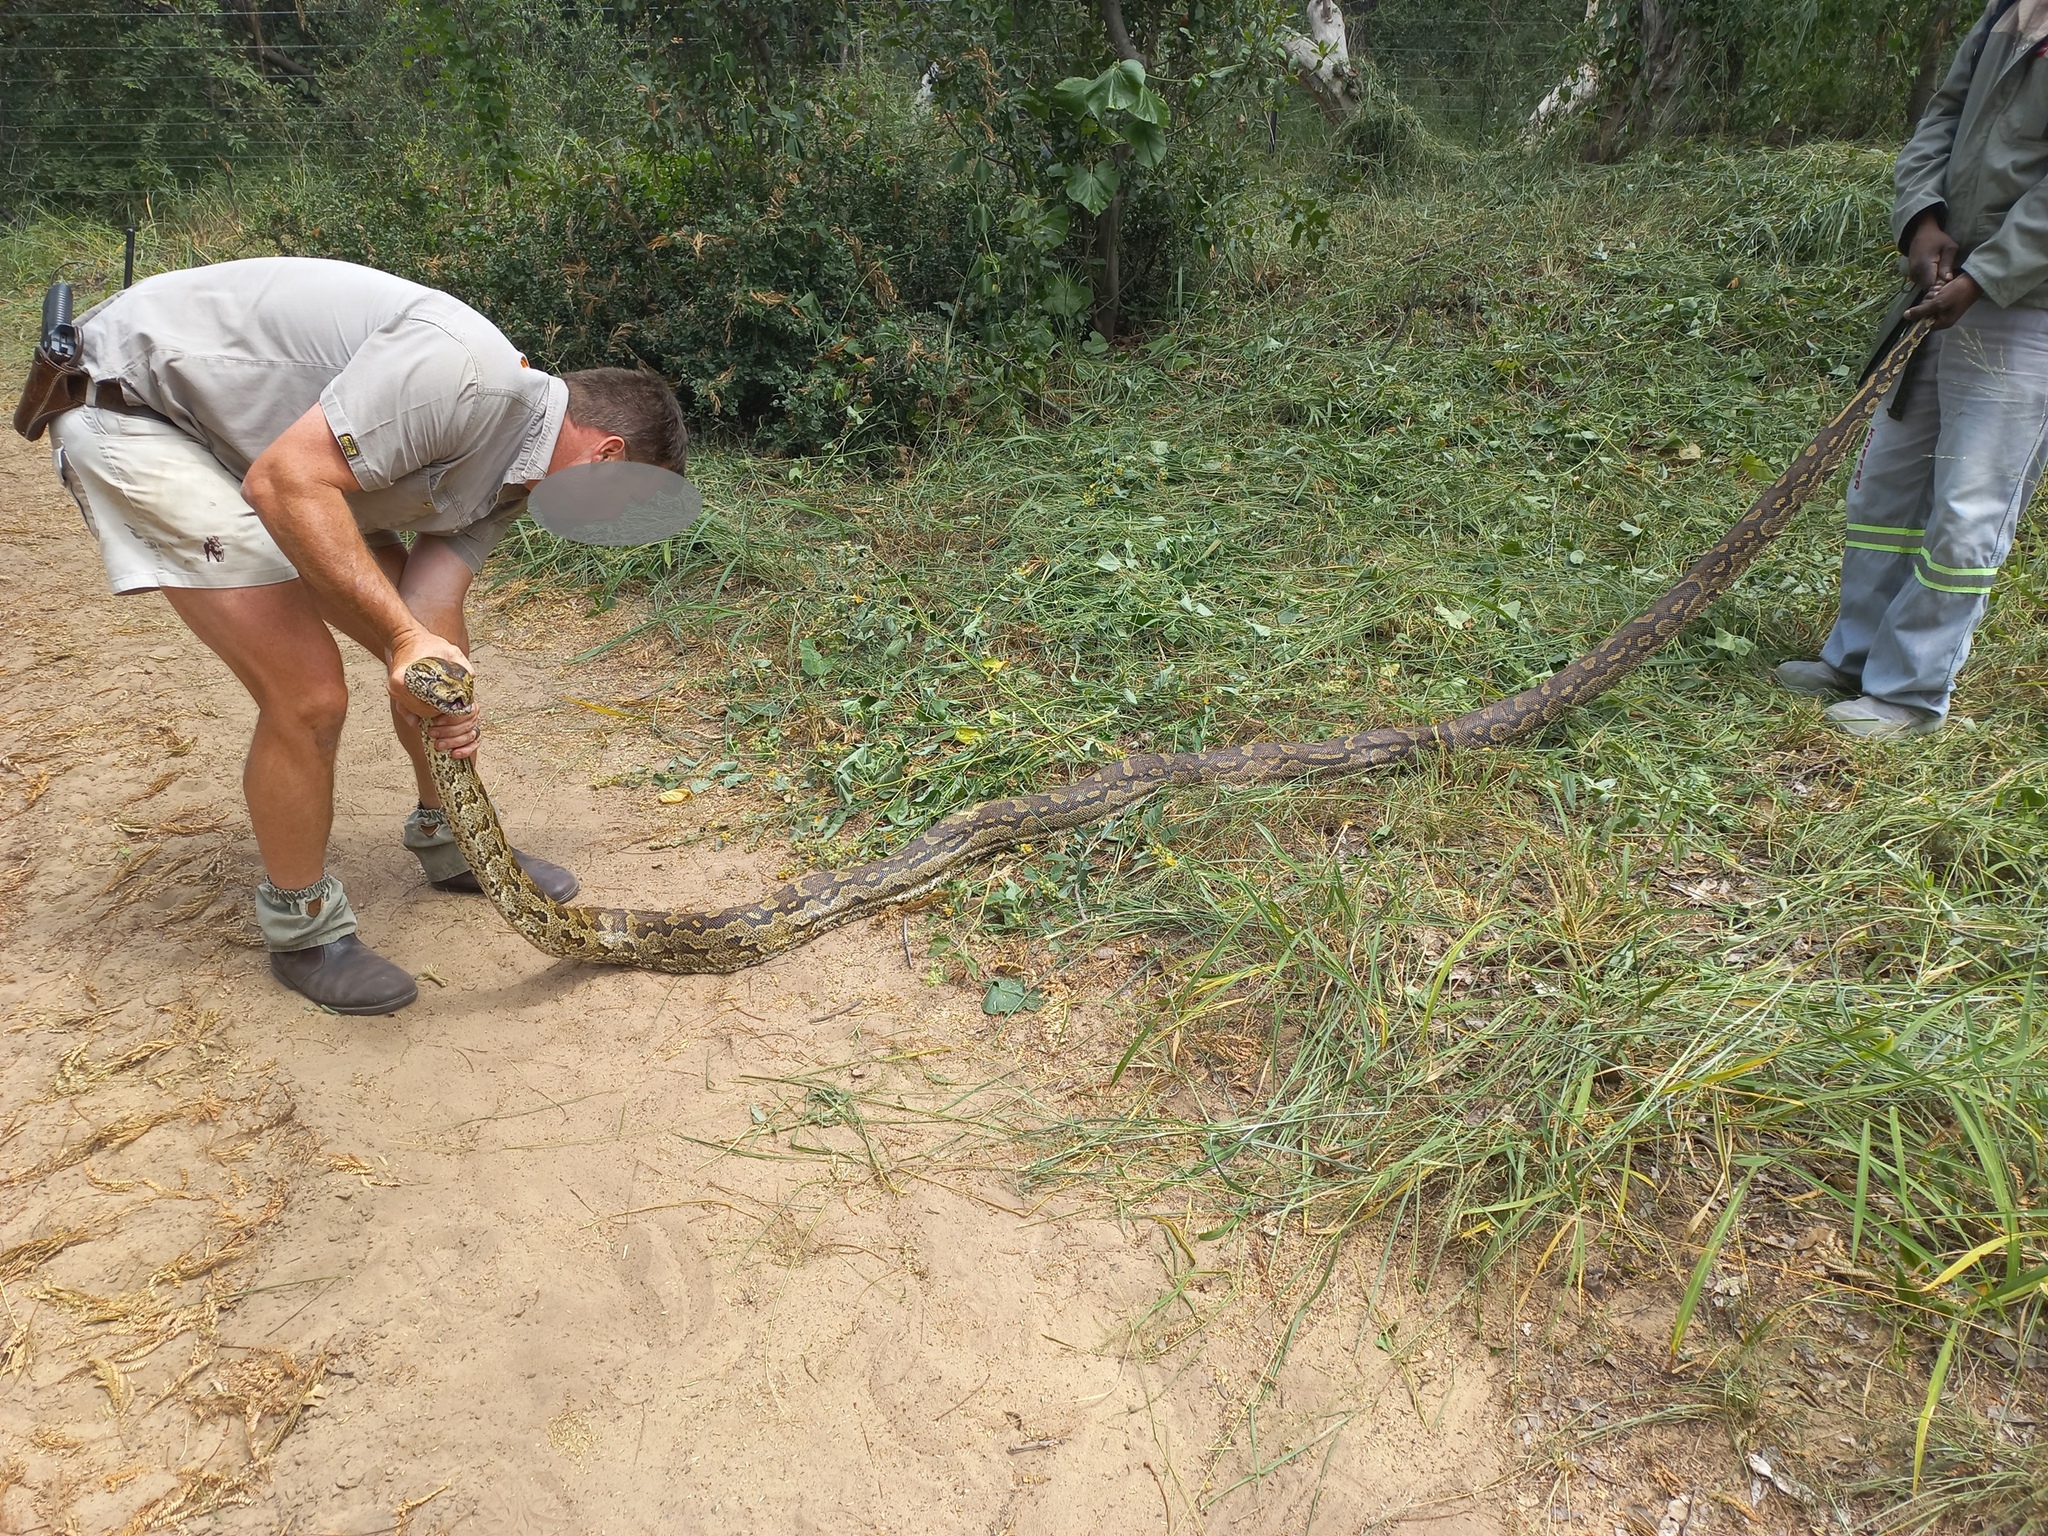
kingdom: Animalia
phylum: Chordata
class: Squamata
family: Pythonidae
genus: Python
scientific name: Python natalensis
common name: Southern african rock python
